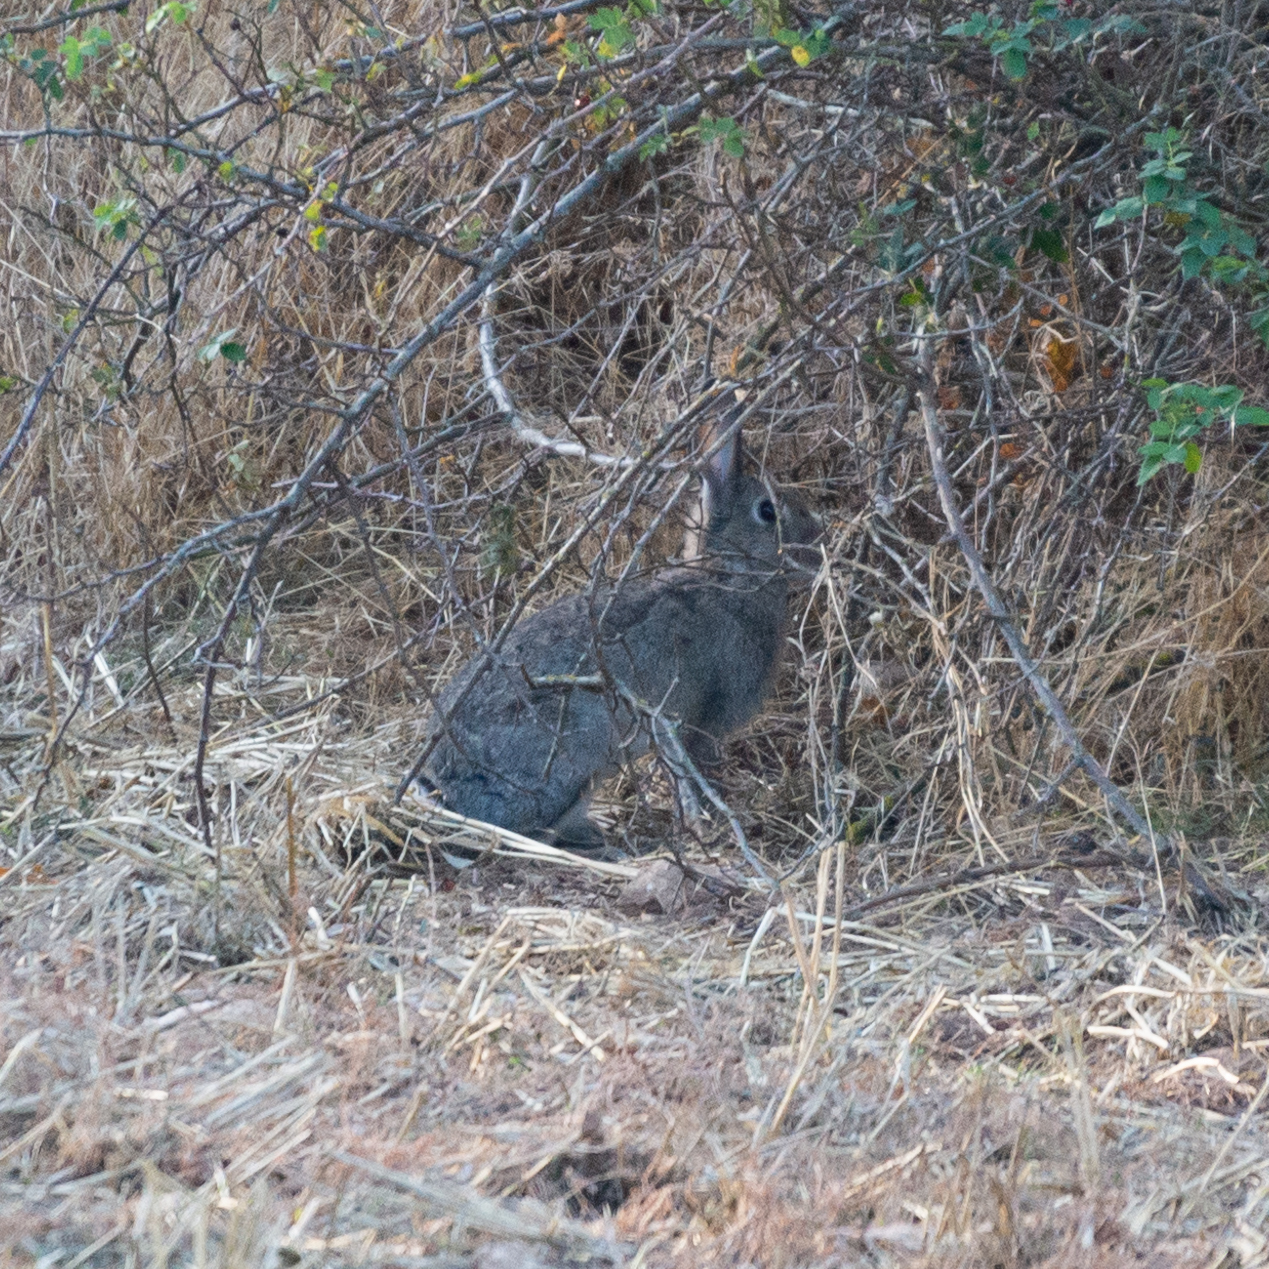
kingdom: Animalia
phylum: Chordata
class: Mammalia
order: Lagomorpha
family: Leporidae
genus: Oryctolagus
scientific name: Oryctolagus cuniculus
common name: European rabbit
